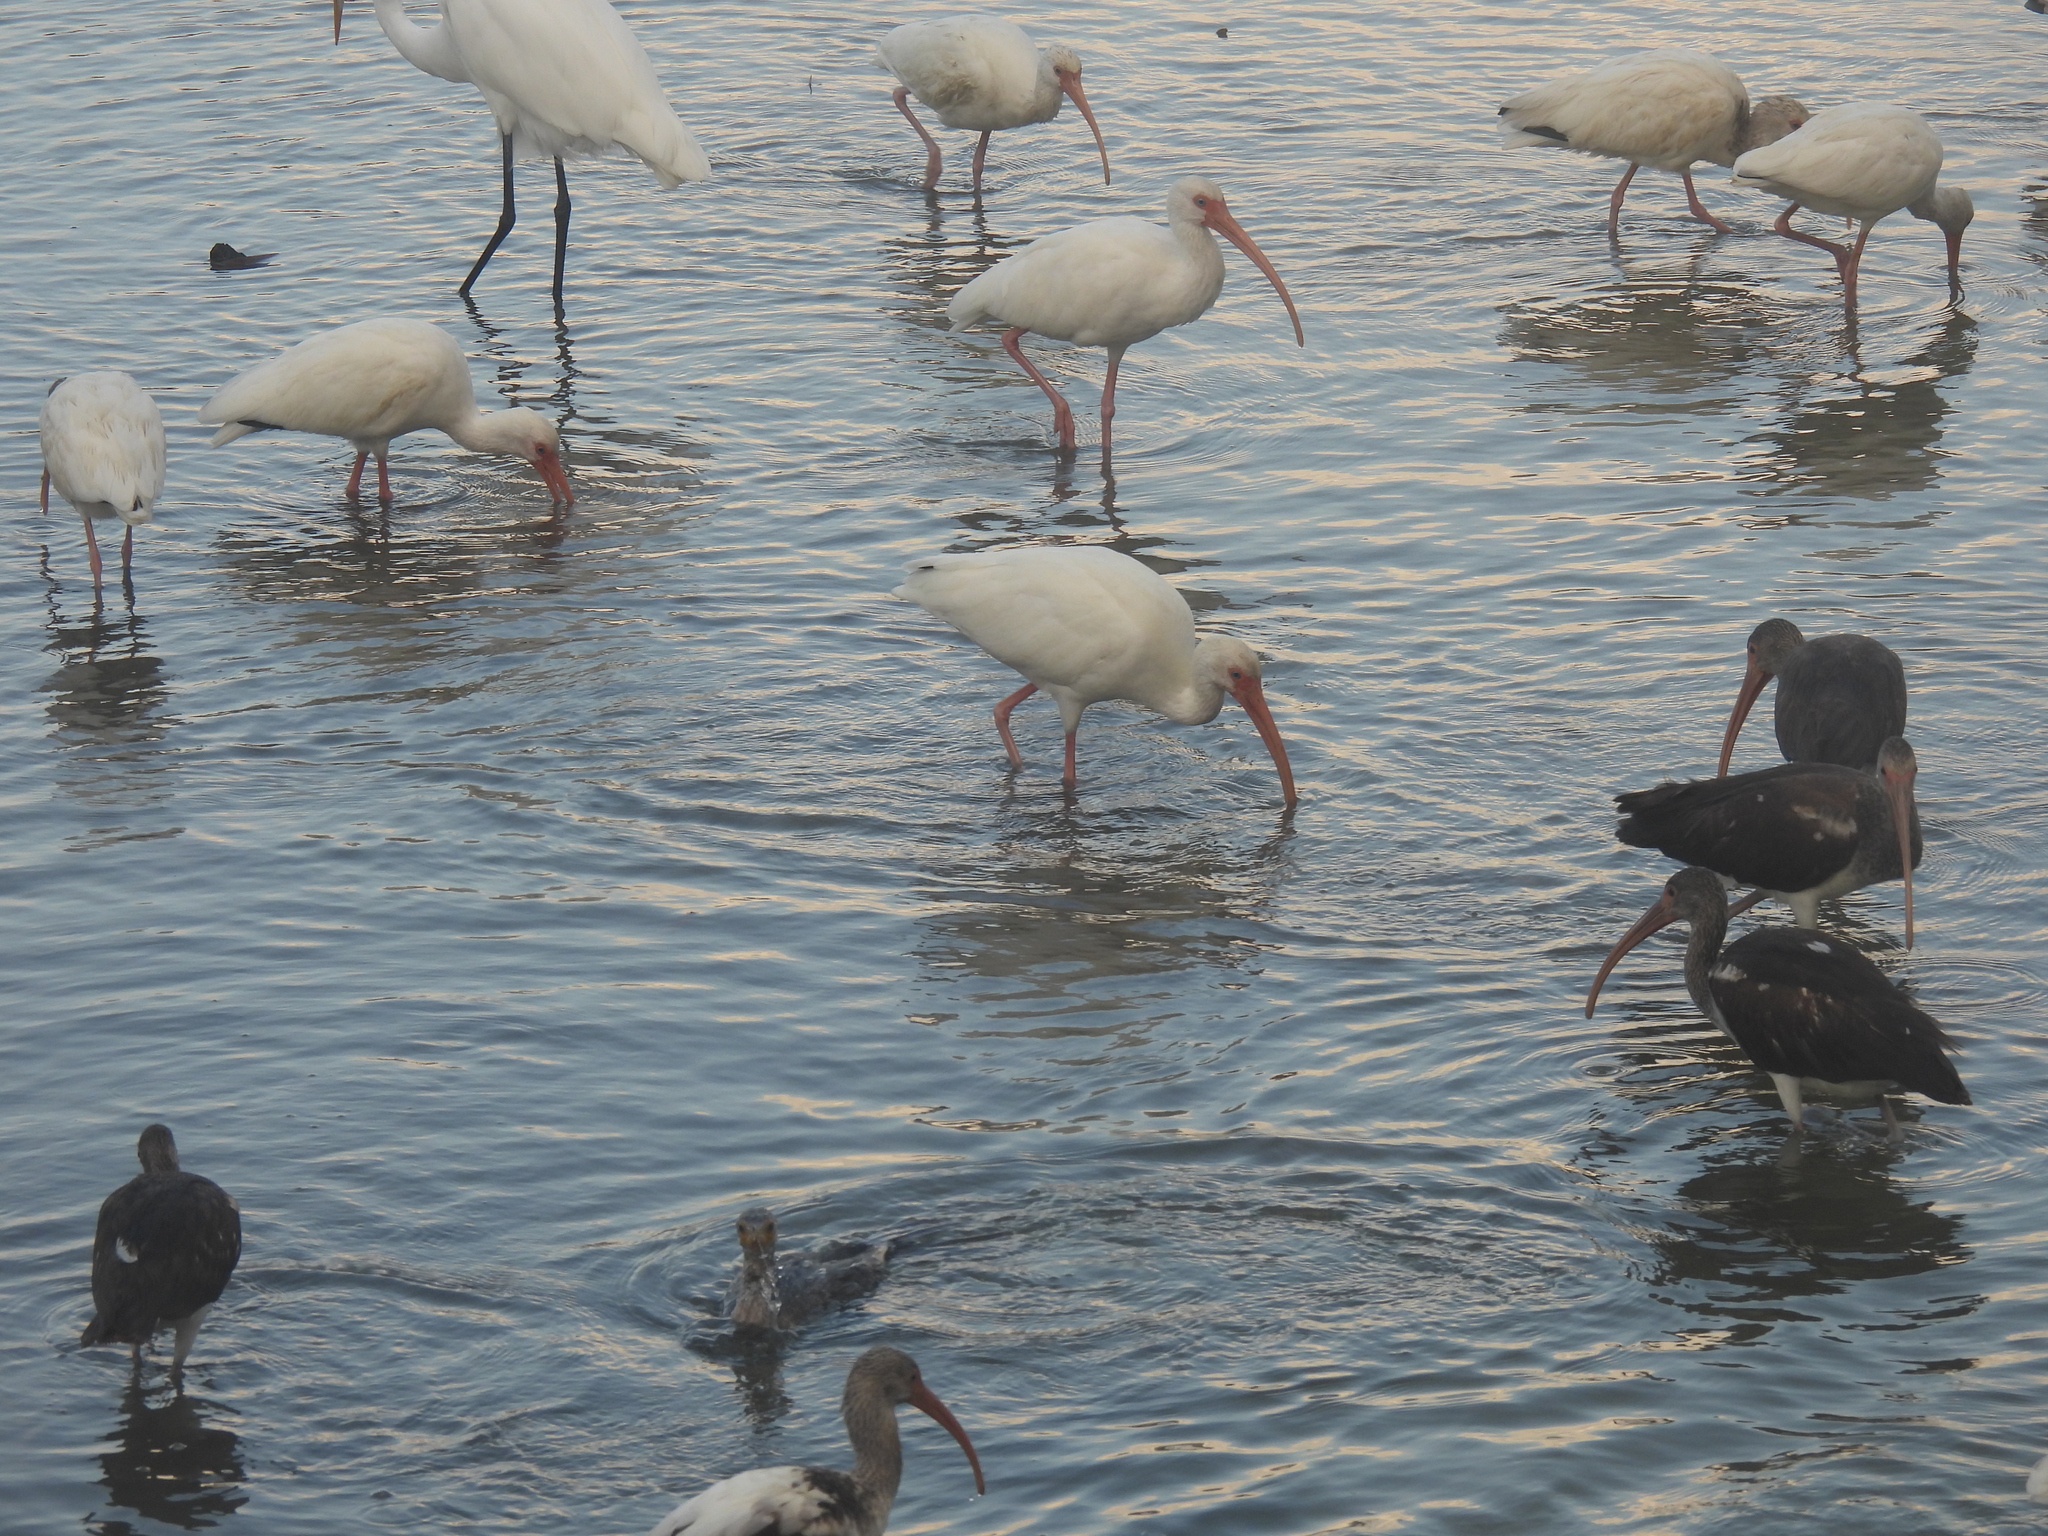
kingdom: Animalia
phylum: Chordata
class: Aves
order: Pelecaniformes
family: Threskiornithidae
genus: Eudocimus
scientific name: Eudocimus albus
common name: White ibis
